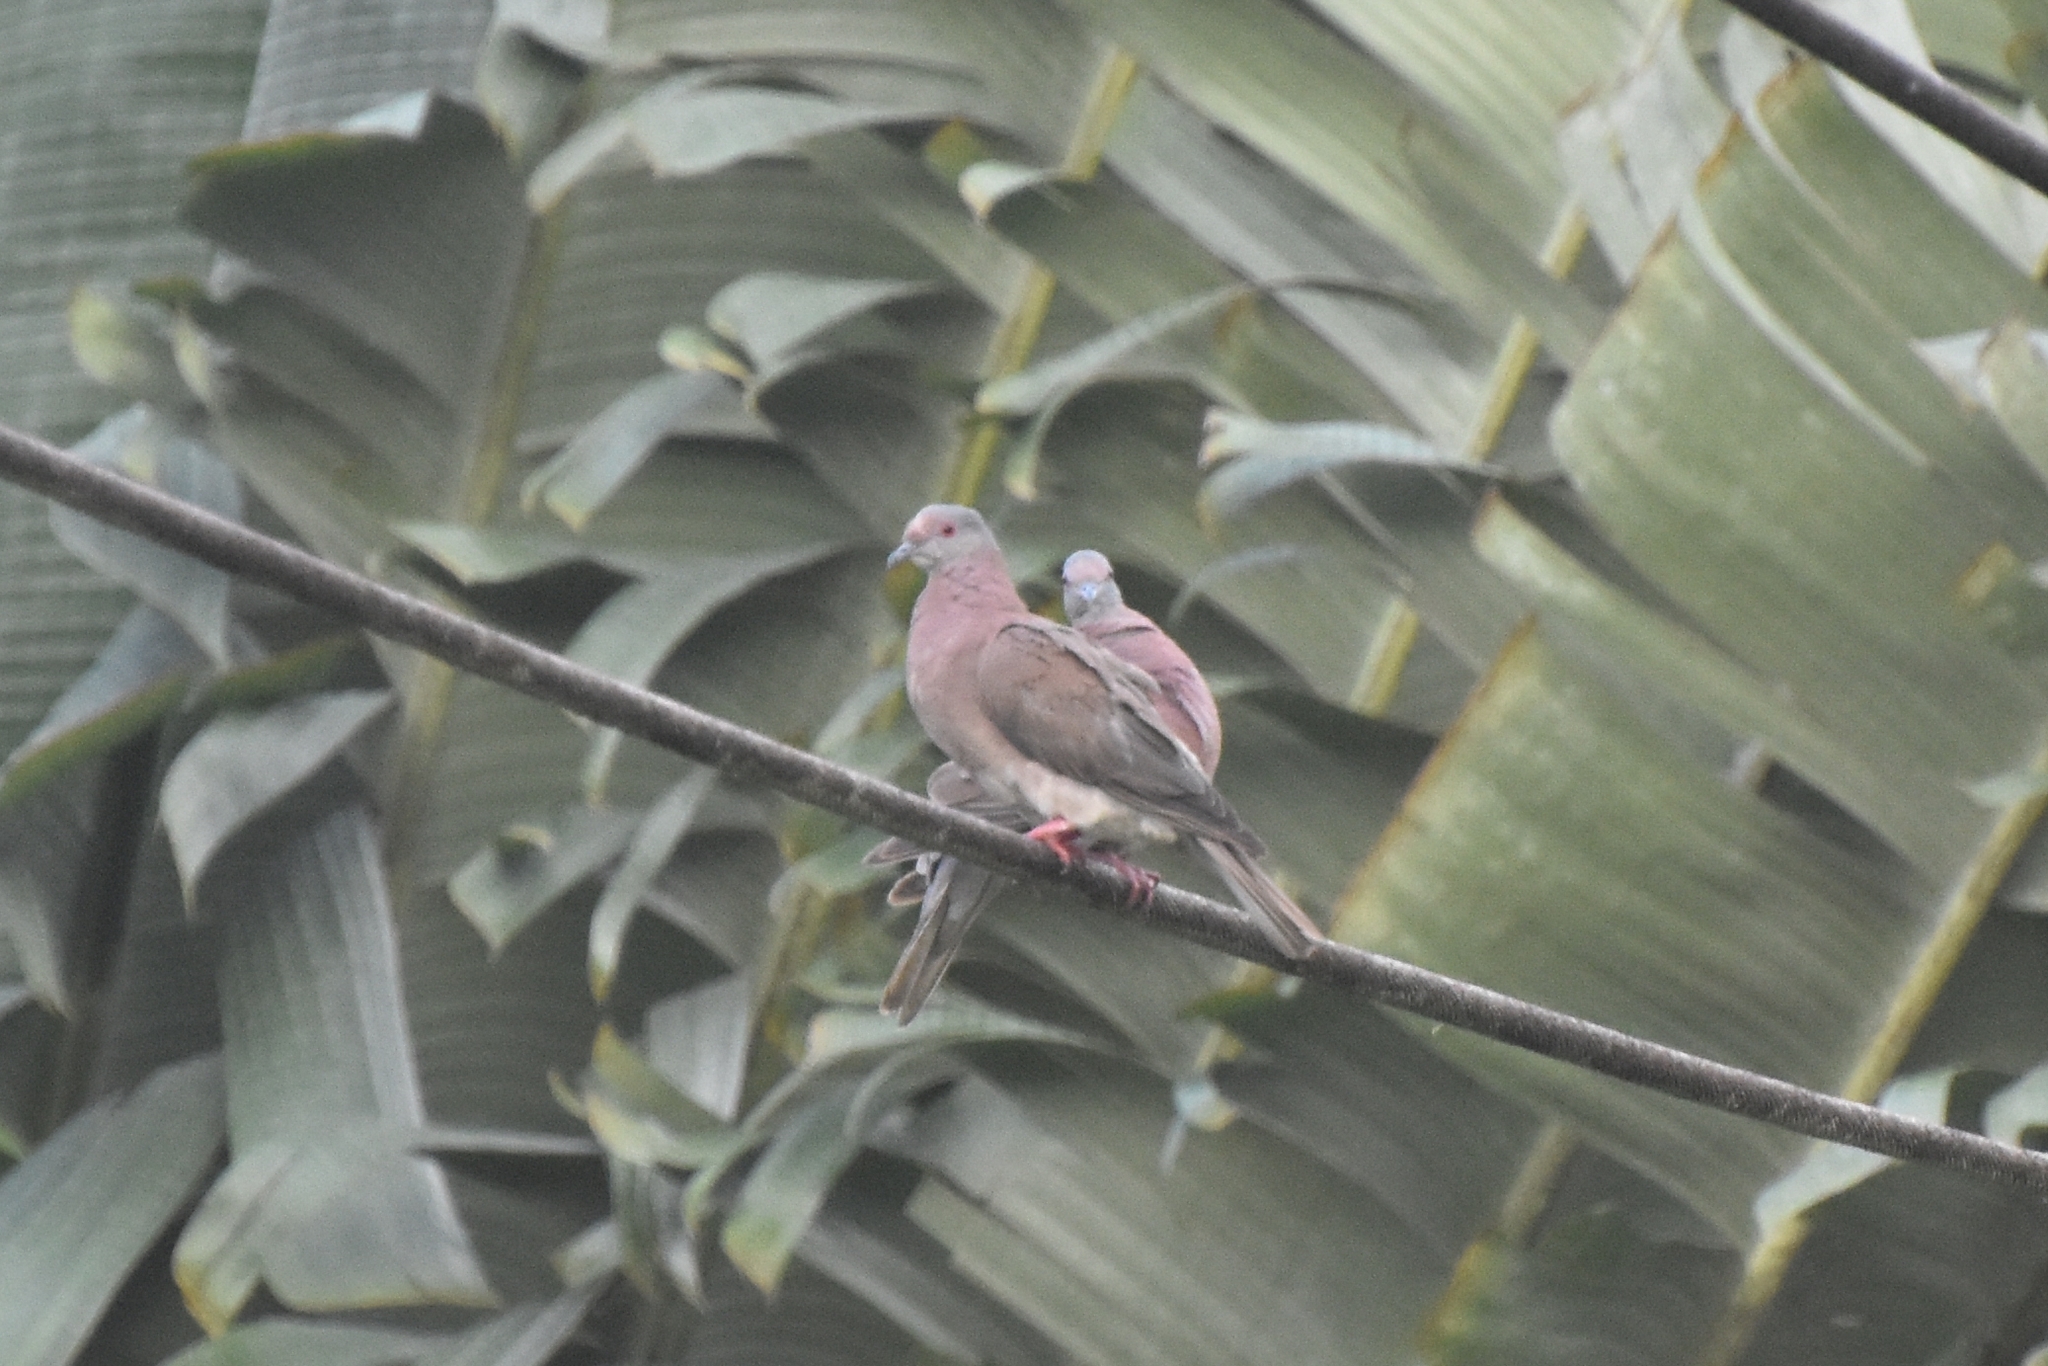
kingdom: Animalia
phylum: Chordata
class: Aves
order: Columbiformes
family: Columbidae
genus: Patagioenas
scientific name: Patagioenas cayennensis
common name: Pale-vented pigeon
